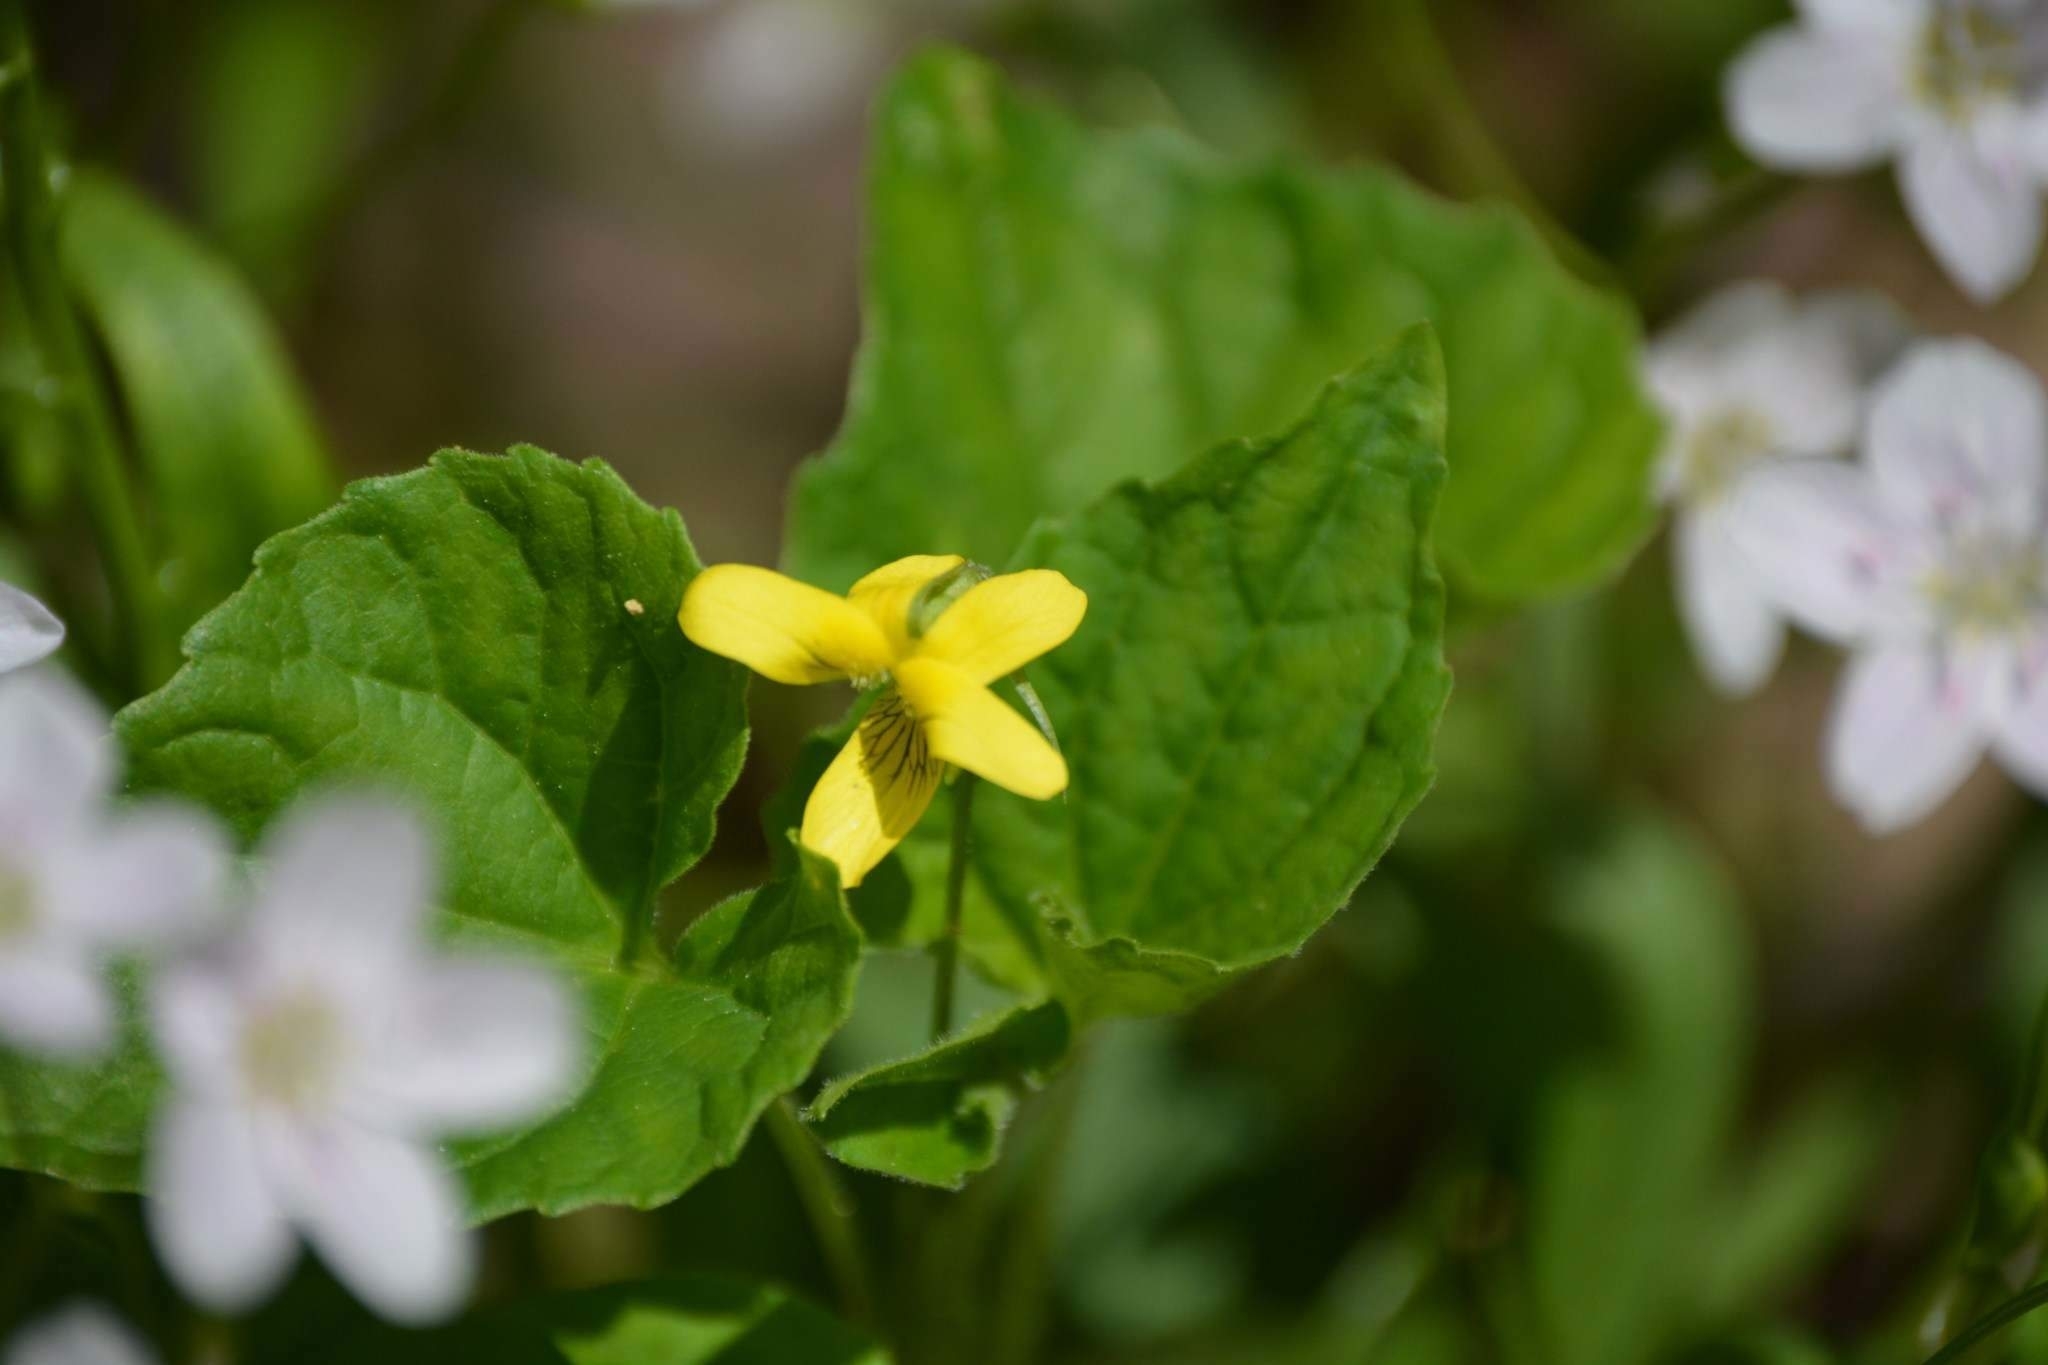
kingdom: Plantae
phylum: Tracheophyta
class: Magnoliopsida
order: Malpighiales
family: Violaceae
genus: Viola
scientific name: Viola eriocarpa
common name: Smooth yellow violet
